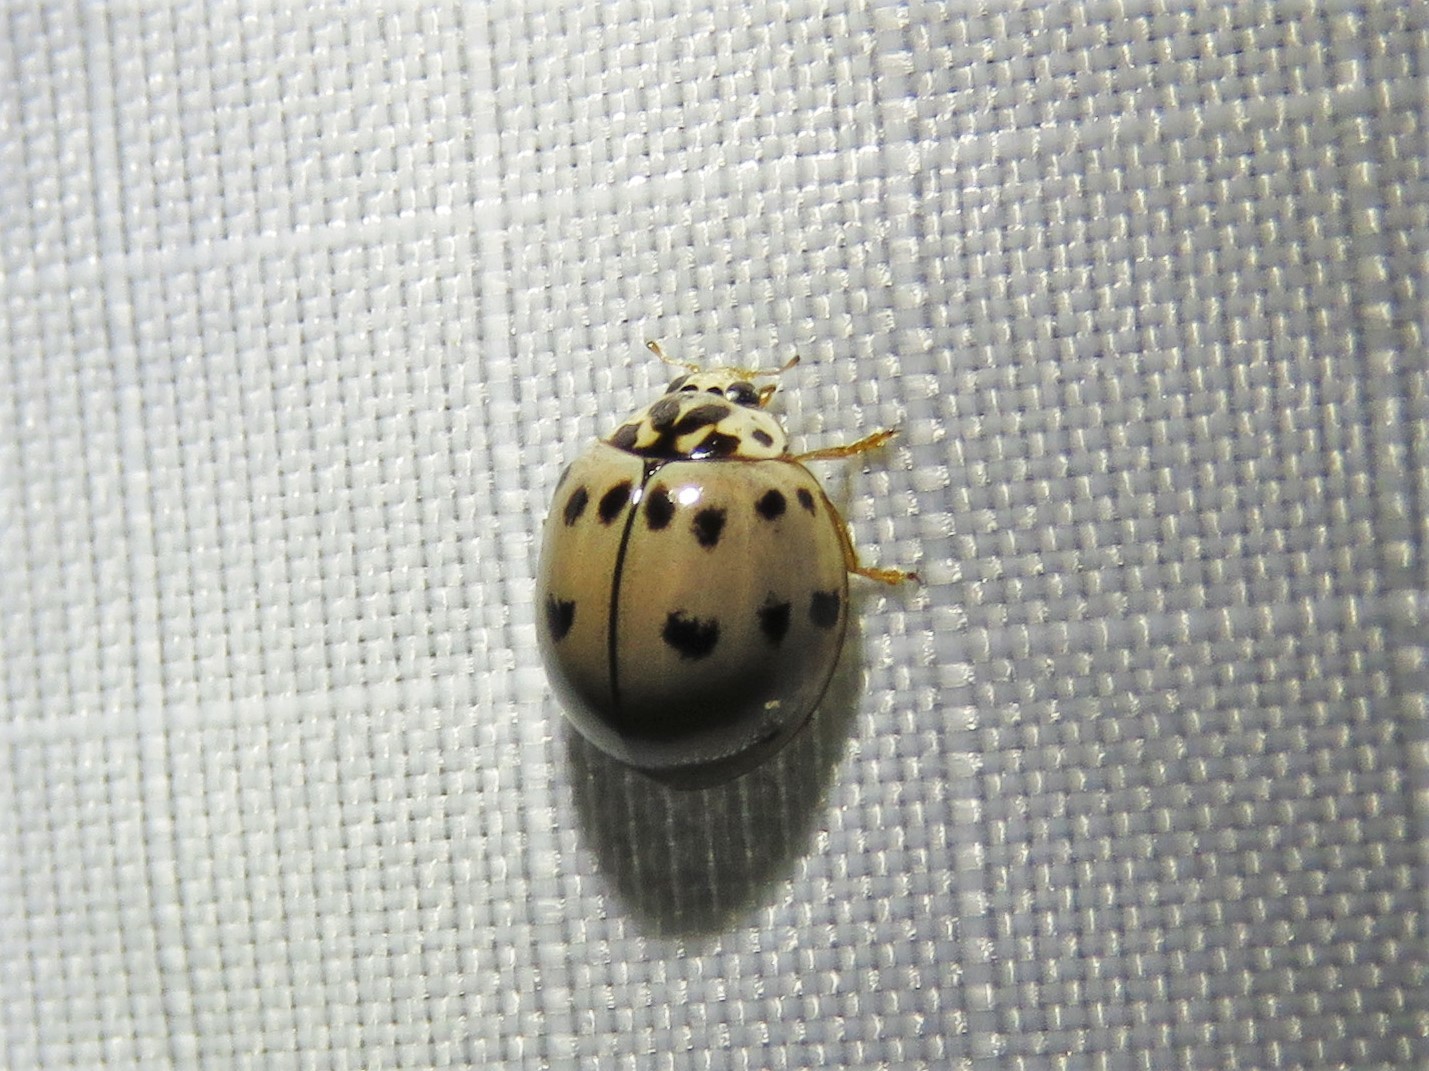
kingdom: Animalia
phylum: Arthropoda
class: Insecta
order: Coleoptera
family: Coccinellidae
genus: Olla
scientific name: Olla v-nigrum
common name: Ashy gray lady beetle
